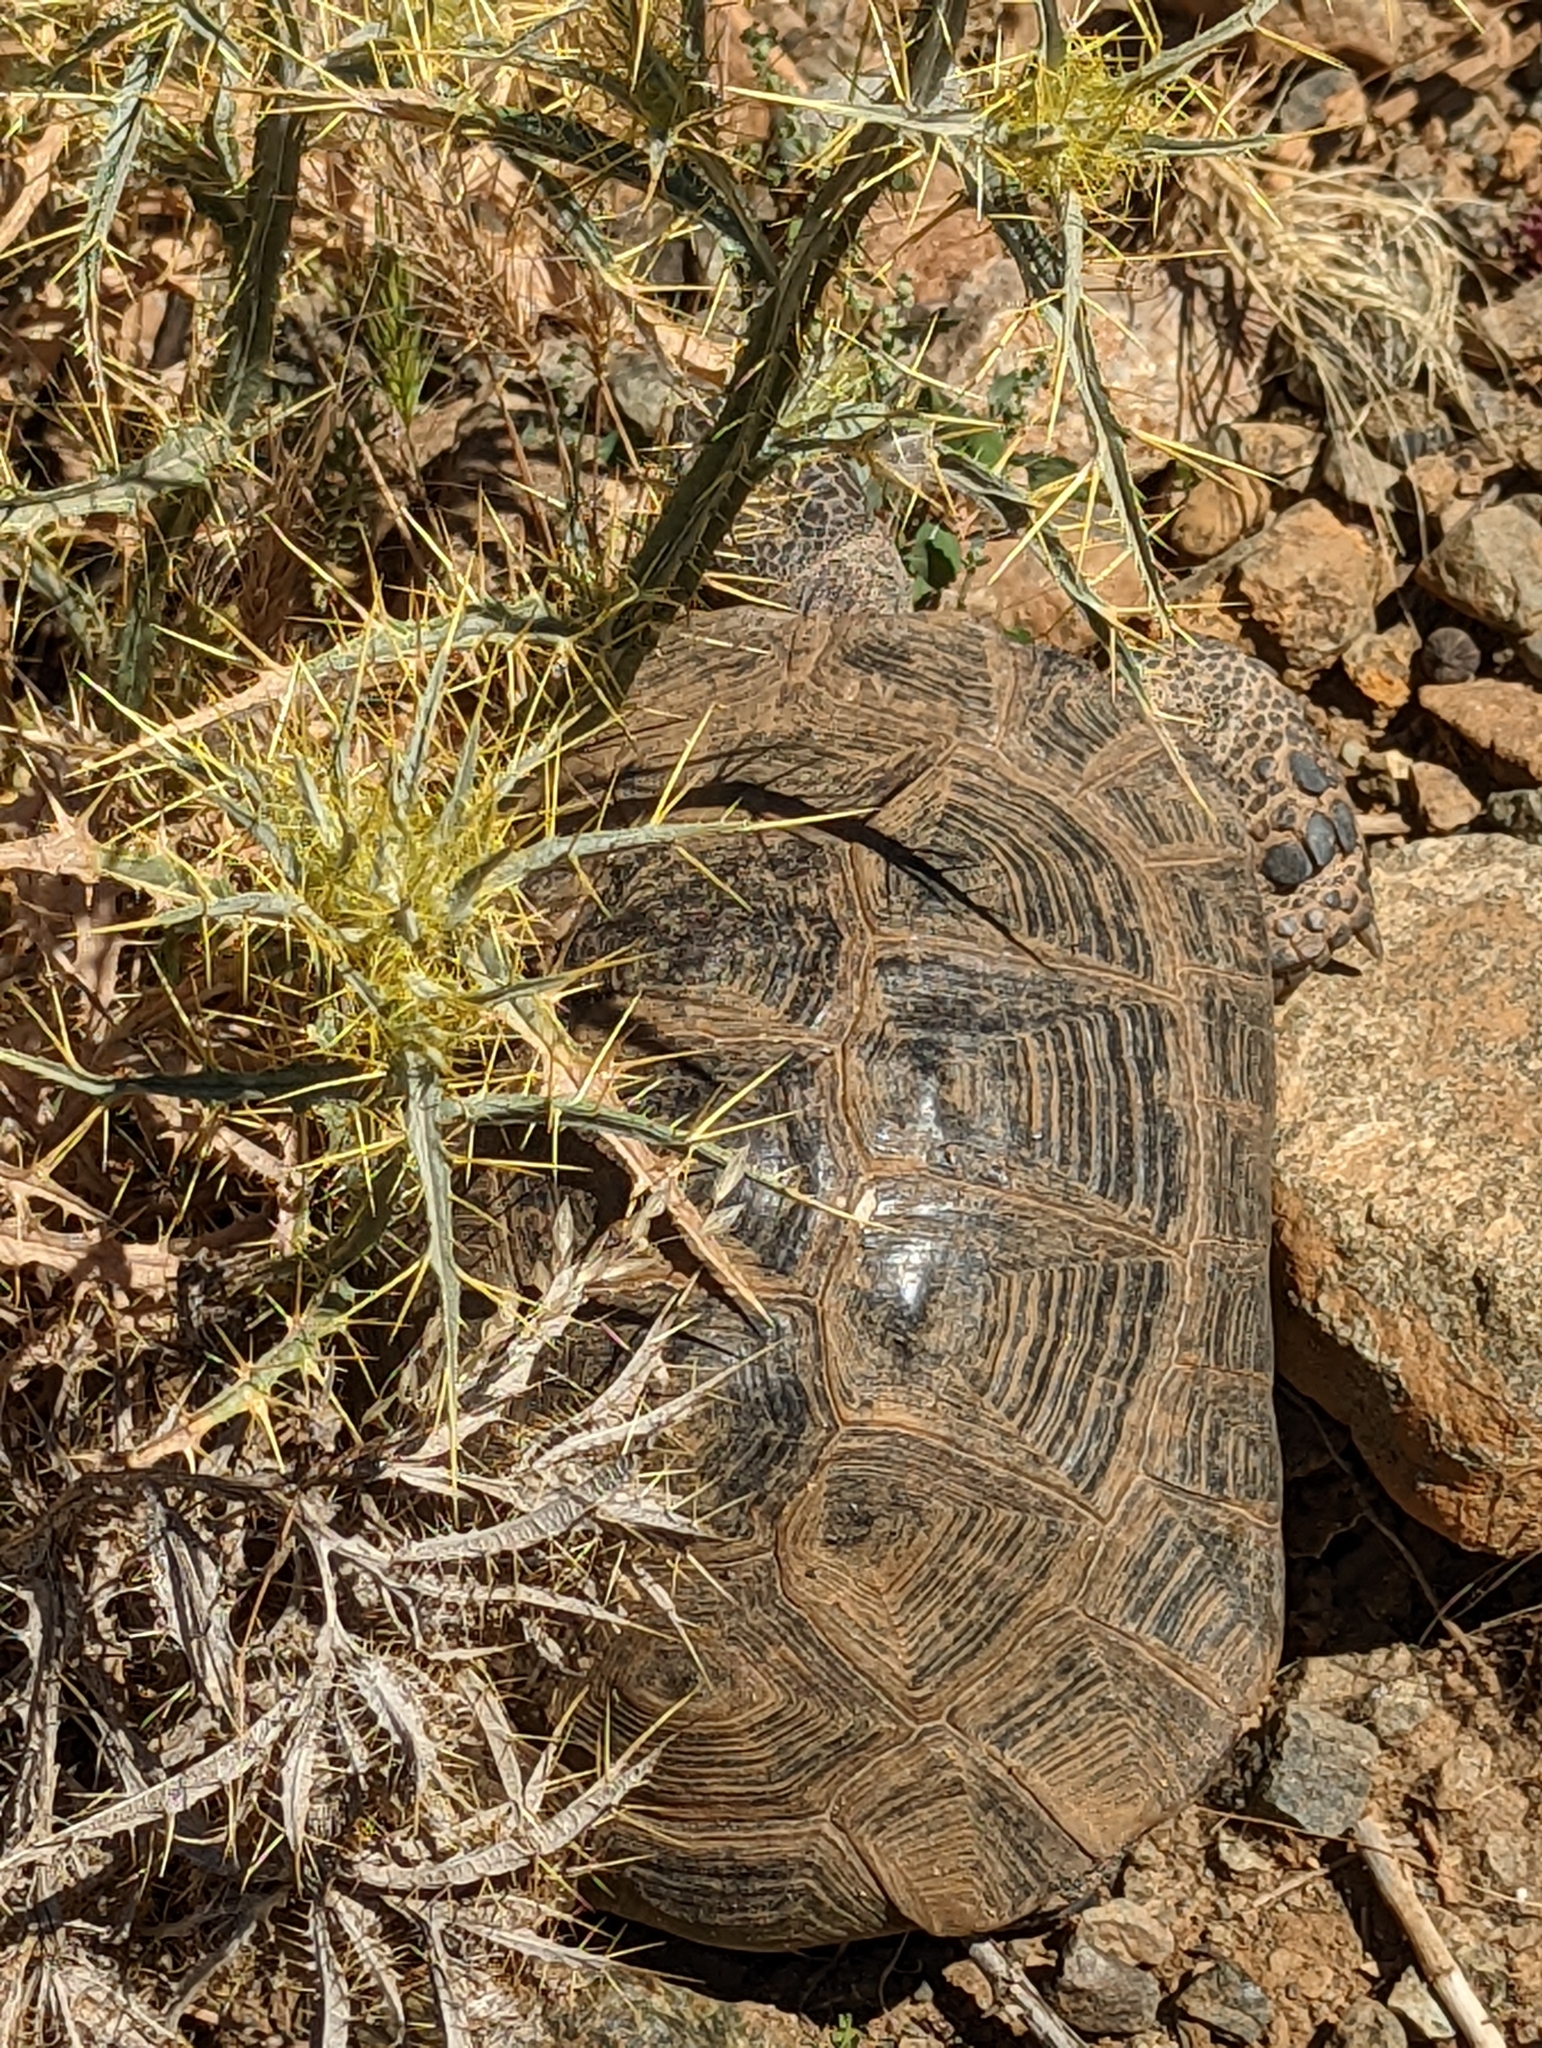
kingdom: Animalia
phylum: Chordata
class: Testudines
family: Testudinidae
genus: Testudo
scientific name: Testudo graeca
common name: Common tortoise
